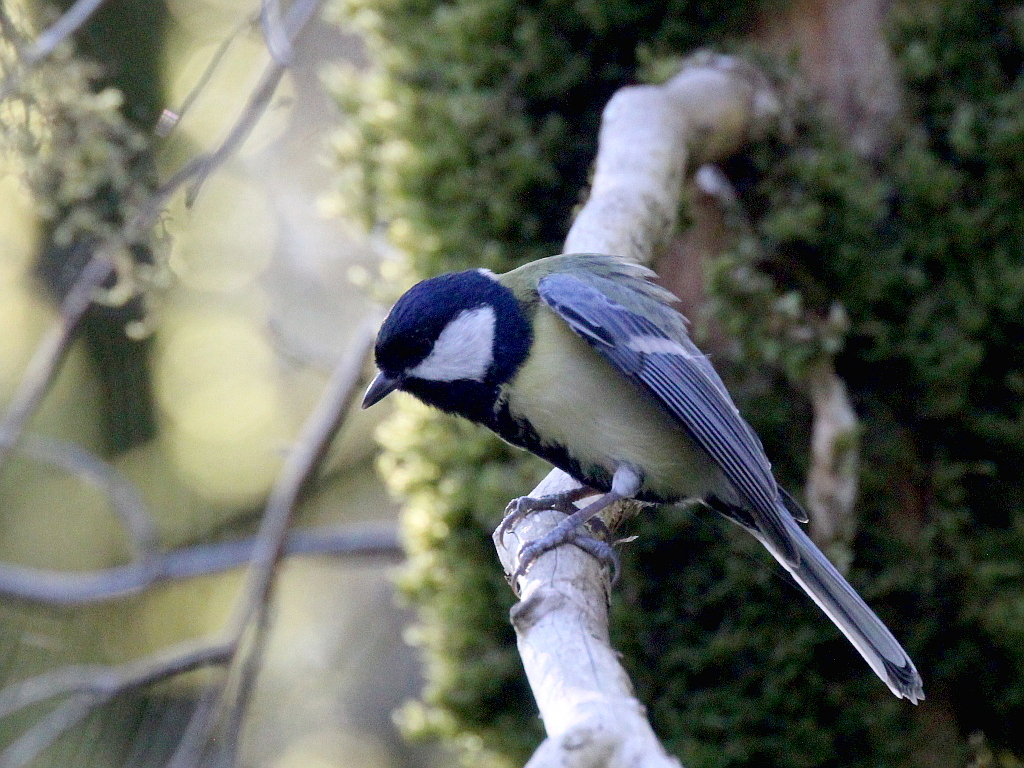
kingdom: Animalia
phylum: Chordata
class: Aves
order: Passeriformes
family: Paridae
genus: Parus
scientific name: Parus major
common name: Great tit
